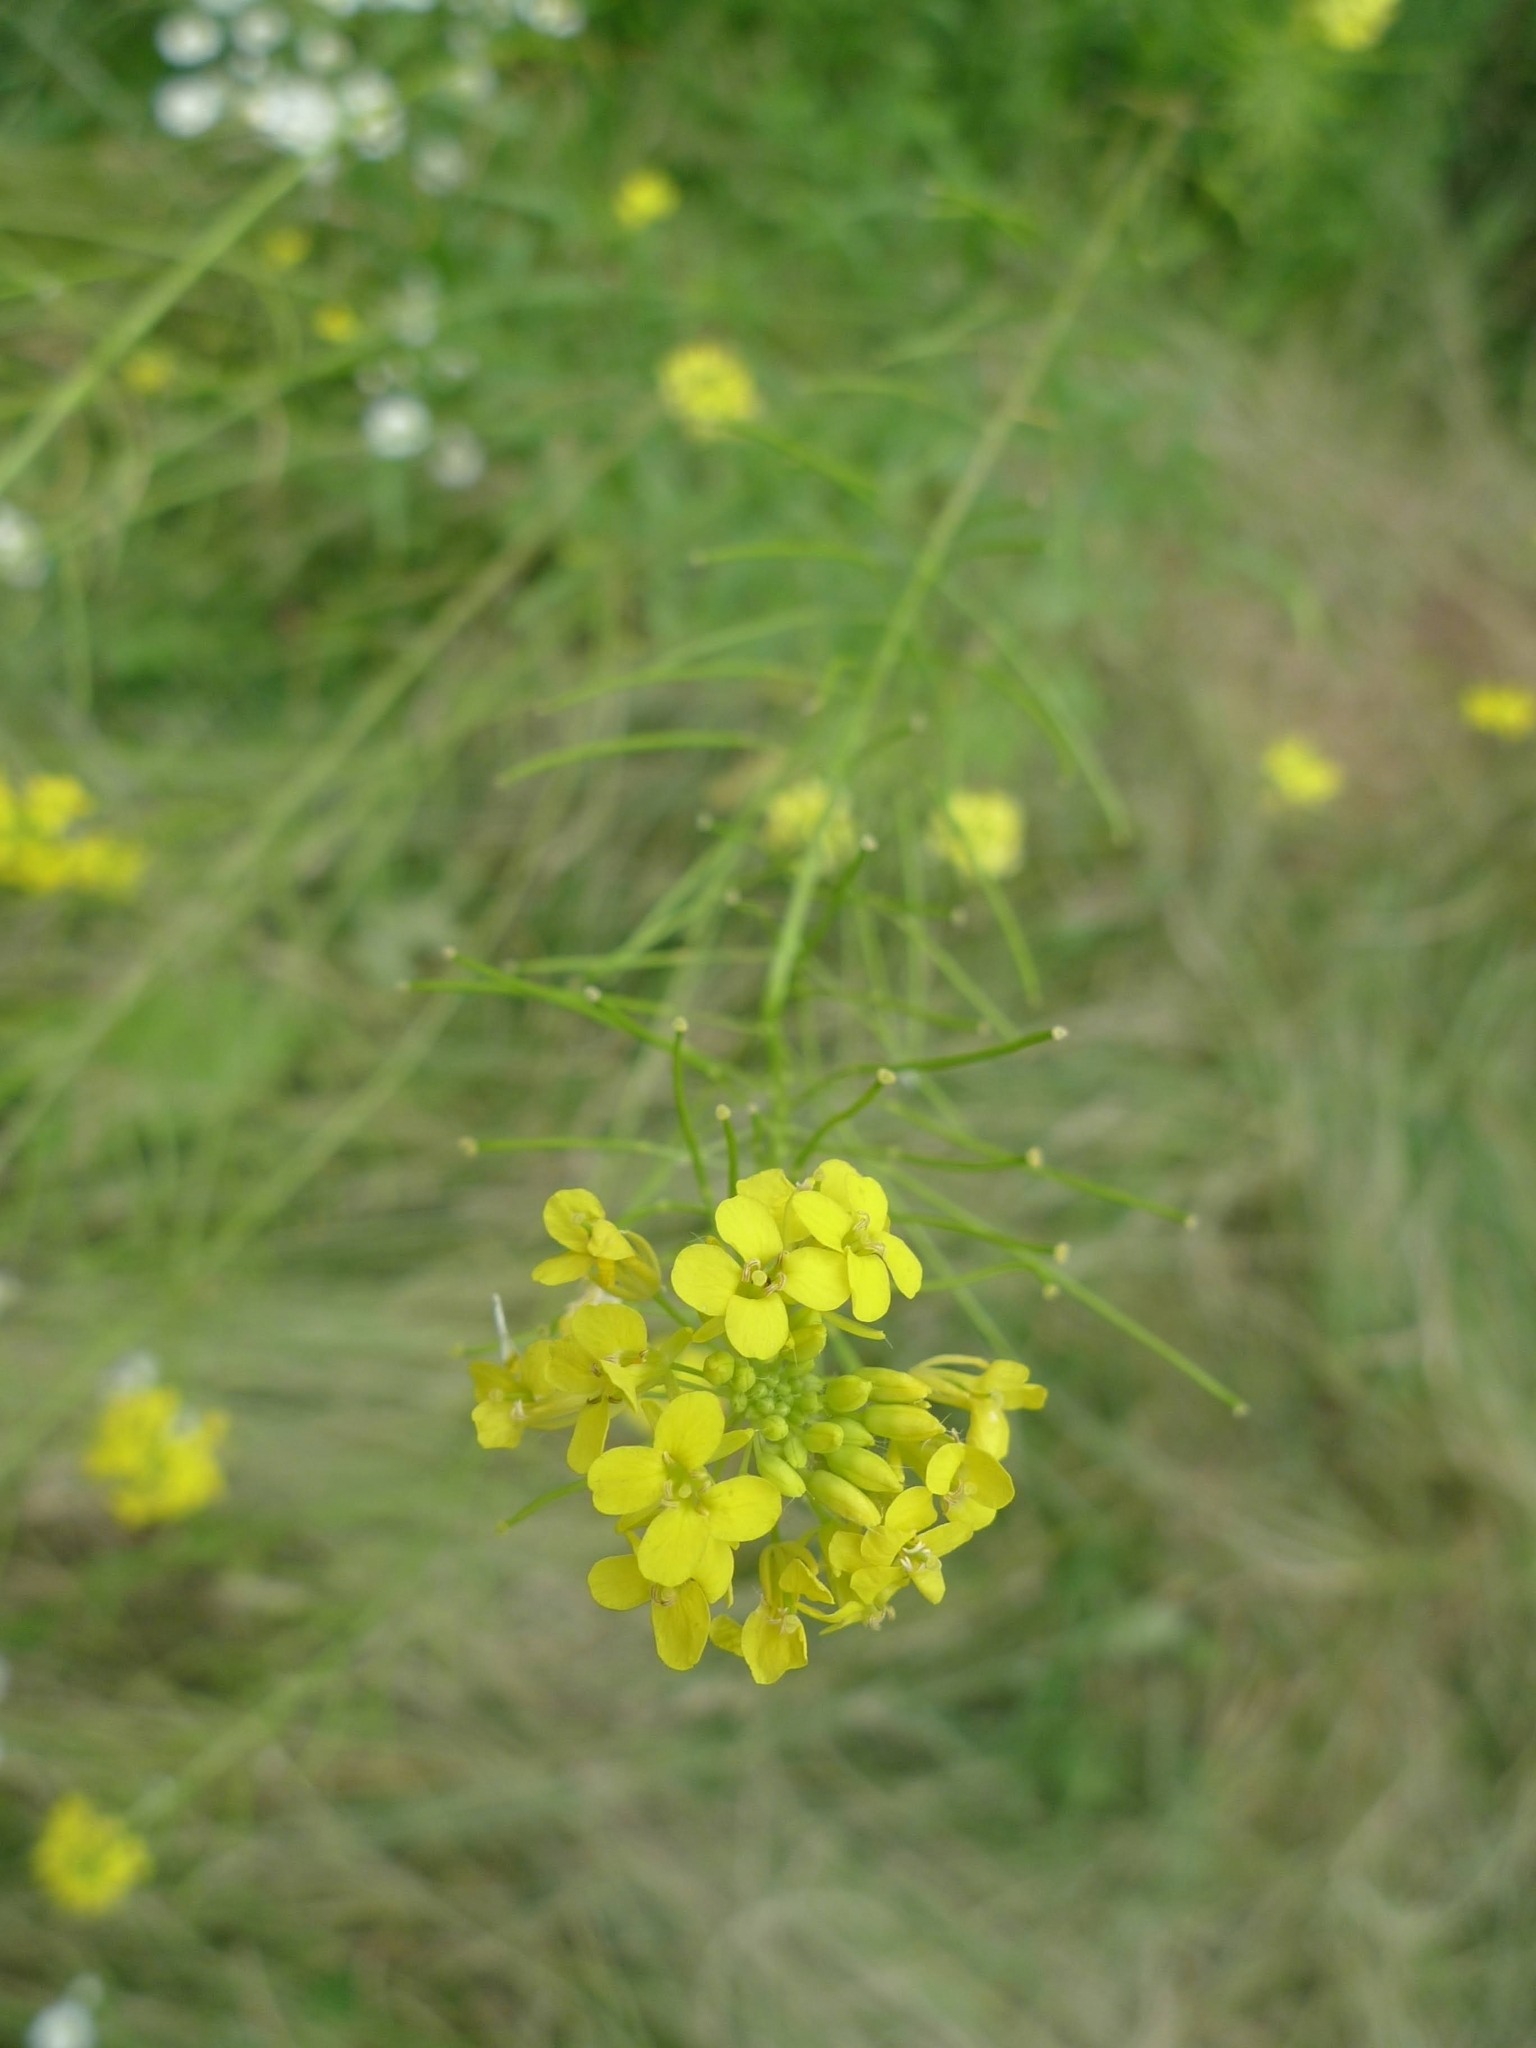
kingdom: Plantae
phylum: Tracheophyta
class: Magnoliopsida
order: Brassicales
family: Brassicaceae
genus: Sisymbrium
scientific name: Sisymbrium loeselii
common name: False london-rocket
